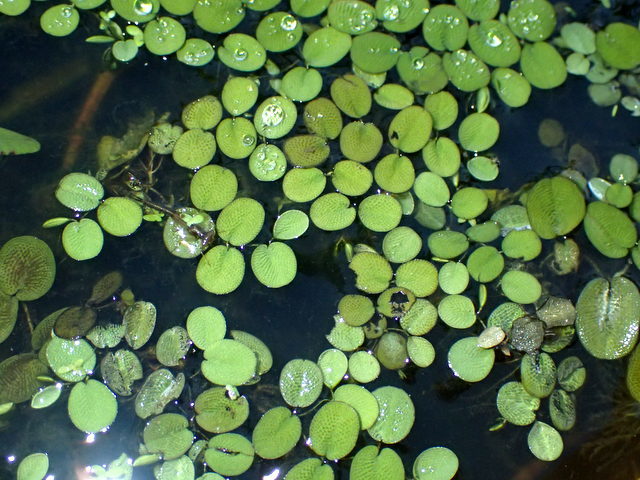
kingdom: Plantae
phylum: Tracheophyta
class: Polypodiopsida
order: Salviniales
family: Salviniaceae
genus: Salvinia
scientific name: Salvinia minima
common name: Water spangles
